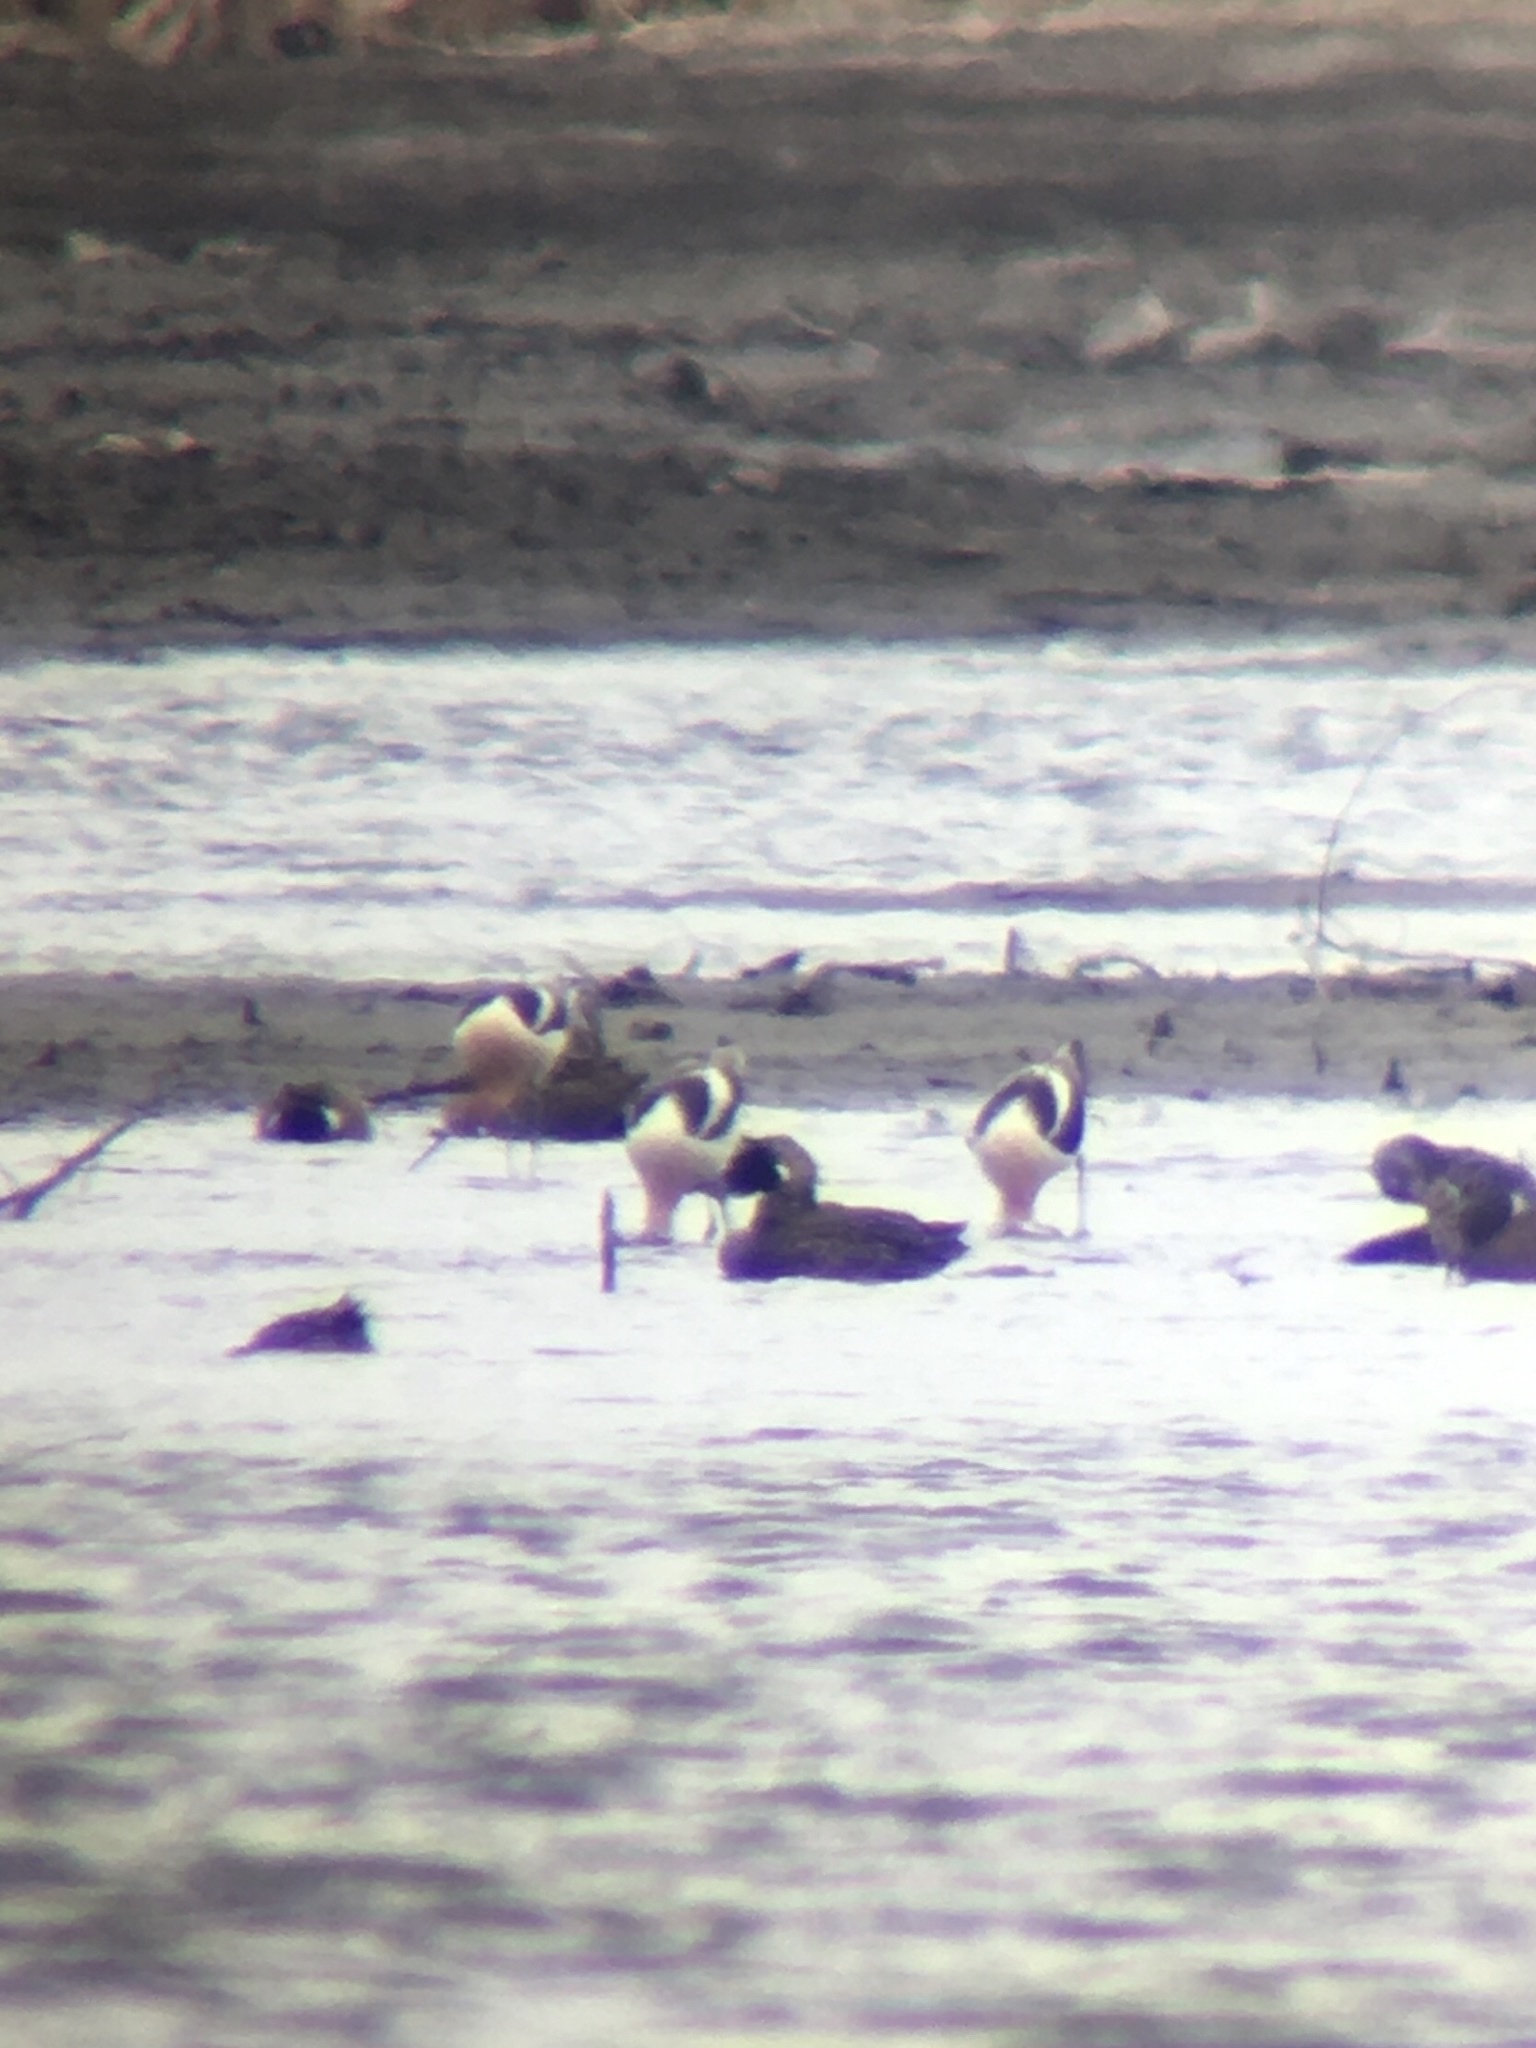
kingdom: Animalia
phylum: Chordata
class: Aves
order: Charadriiformes
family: Recurvirostridae
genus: Recurvirostra
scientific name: Recurvirostra americana
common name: American avocet
